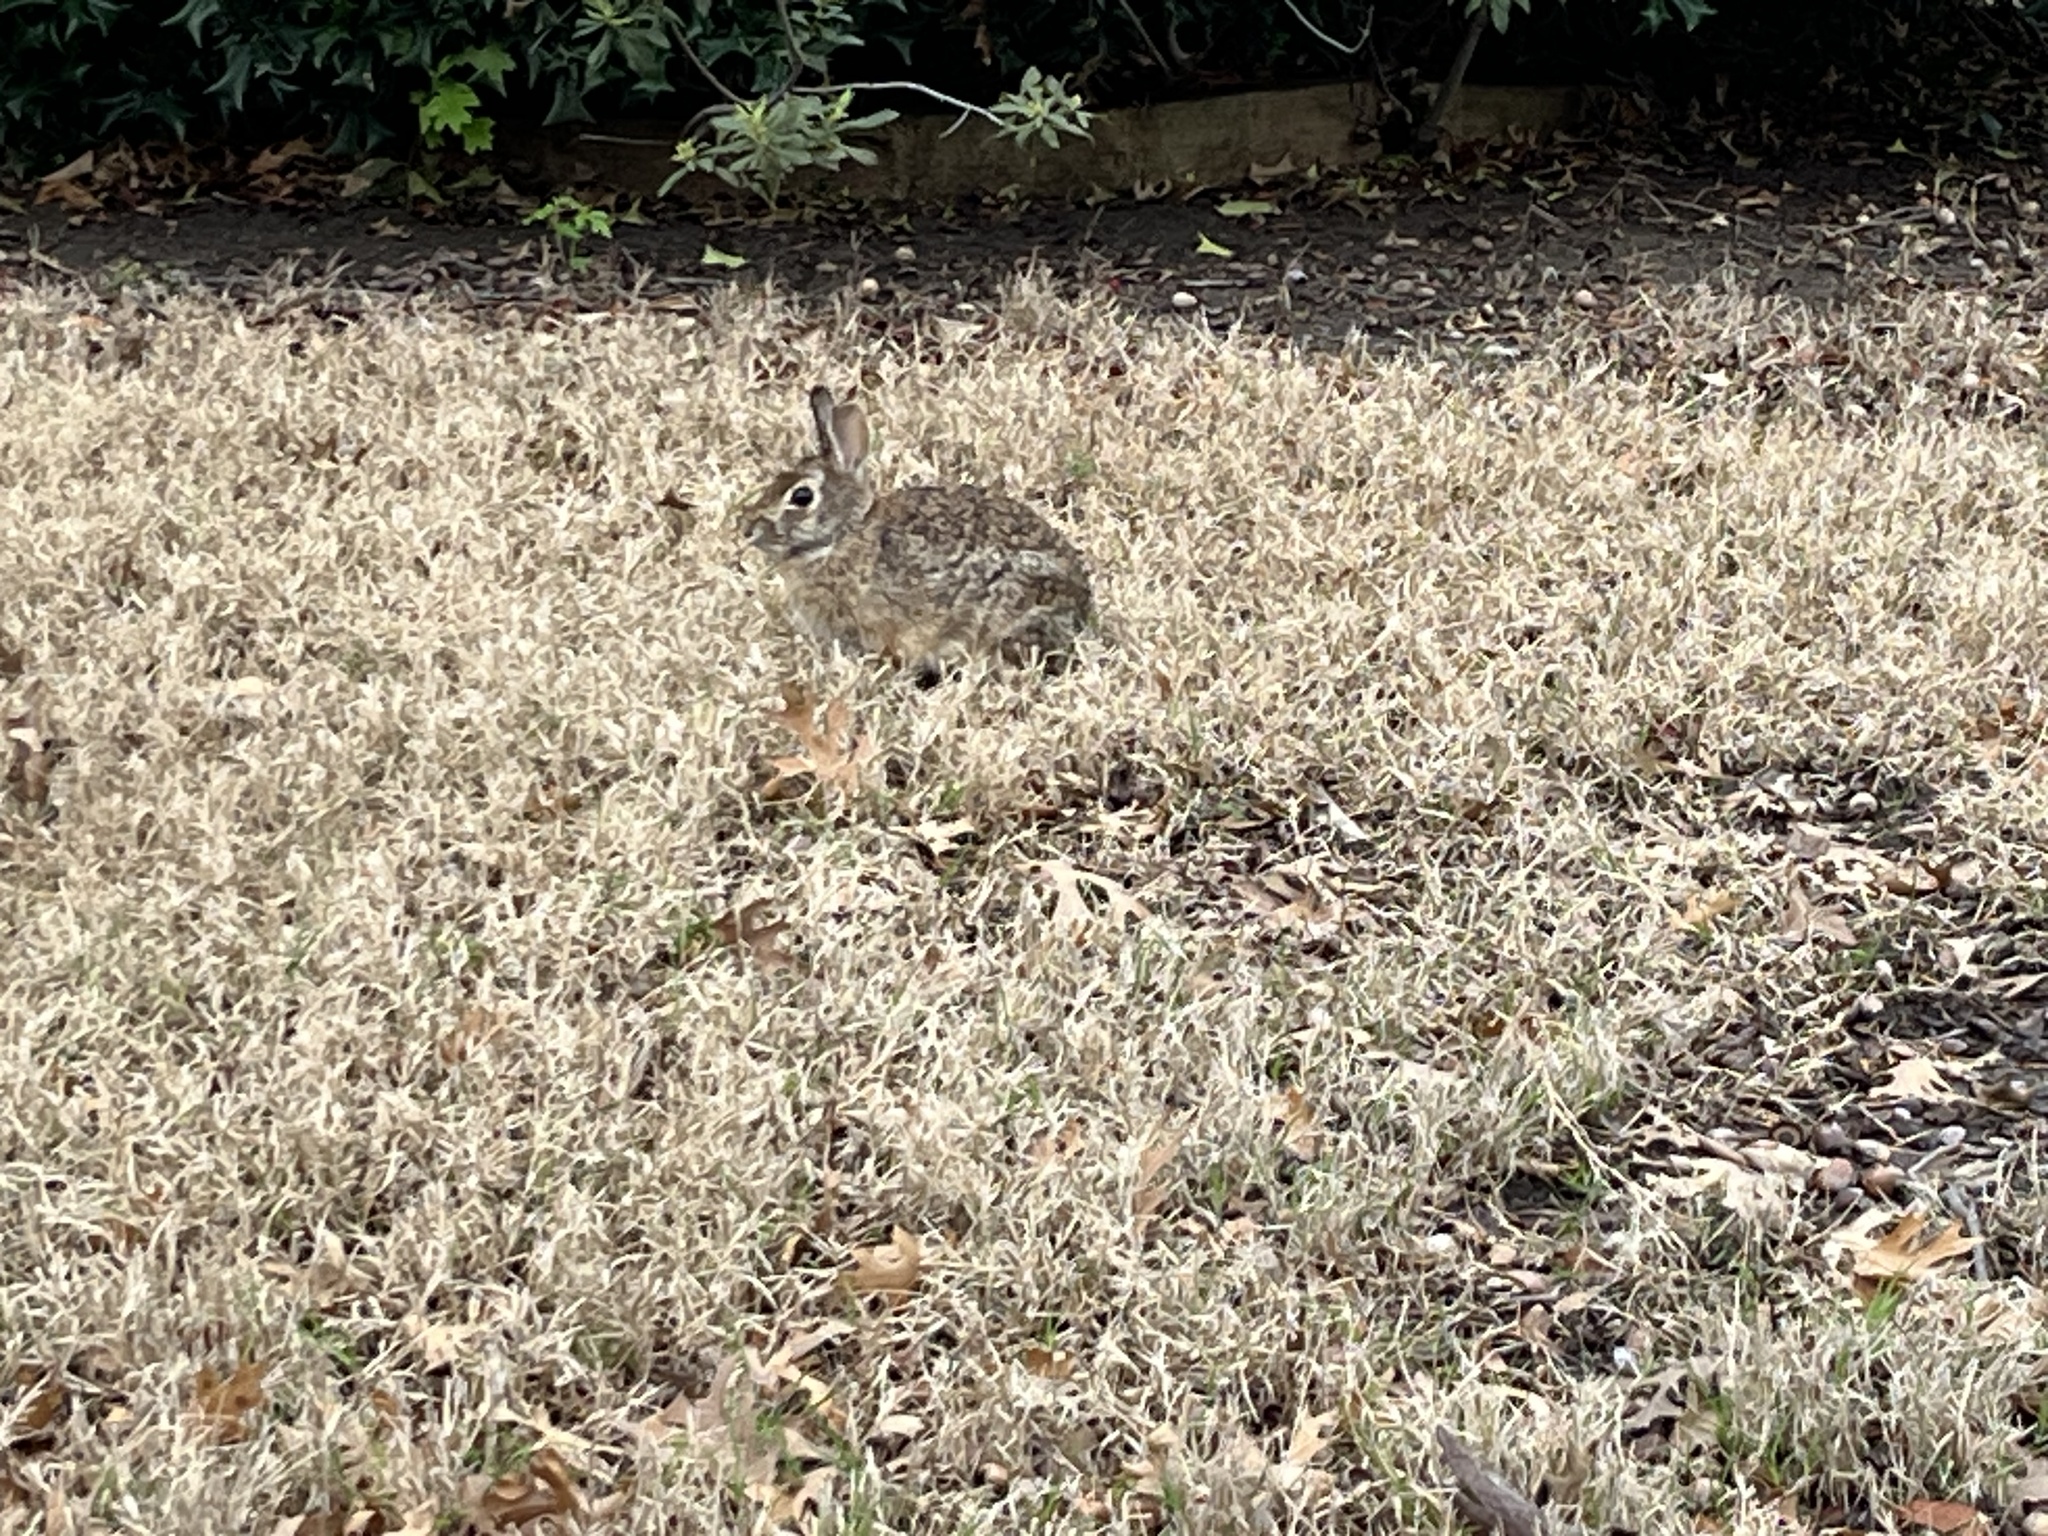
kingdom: Animalia
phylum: Chordata
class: Mammalia
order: Lagomorpha
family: Leporidae
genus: Sylvilagus
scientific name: Sylvilagus floridanus
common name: Eastern cottontail
